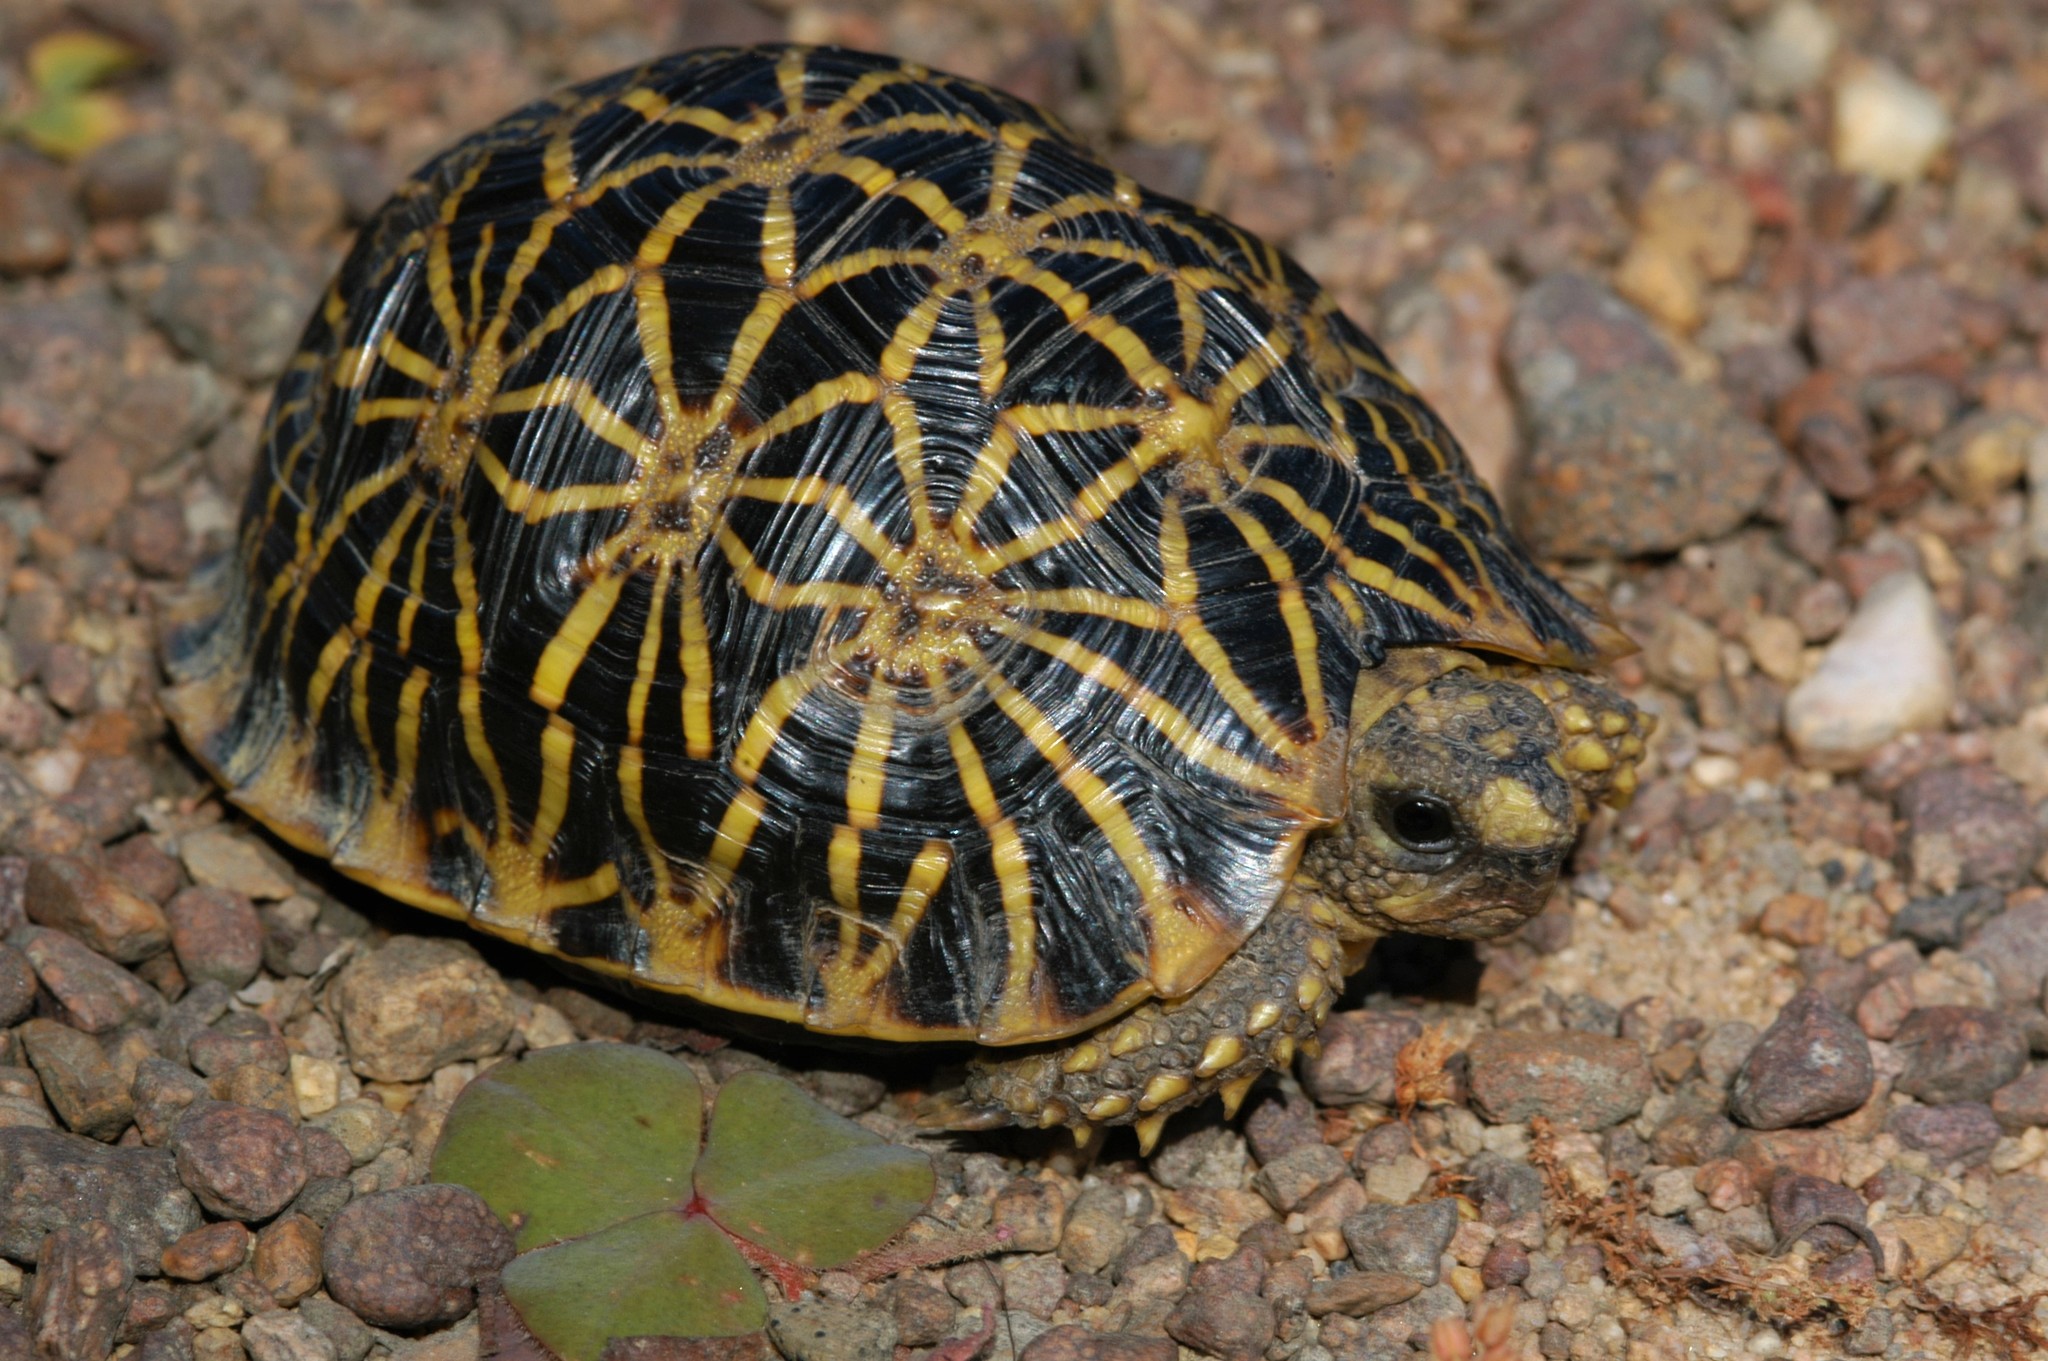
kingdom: Animalia
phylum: Chordata
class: Testudines
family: Testudinidae
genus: Psammobates
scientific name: Psammobates geometricus
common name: Geometric tortoise
